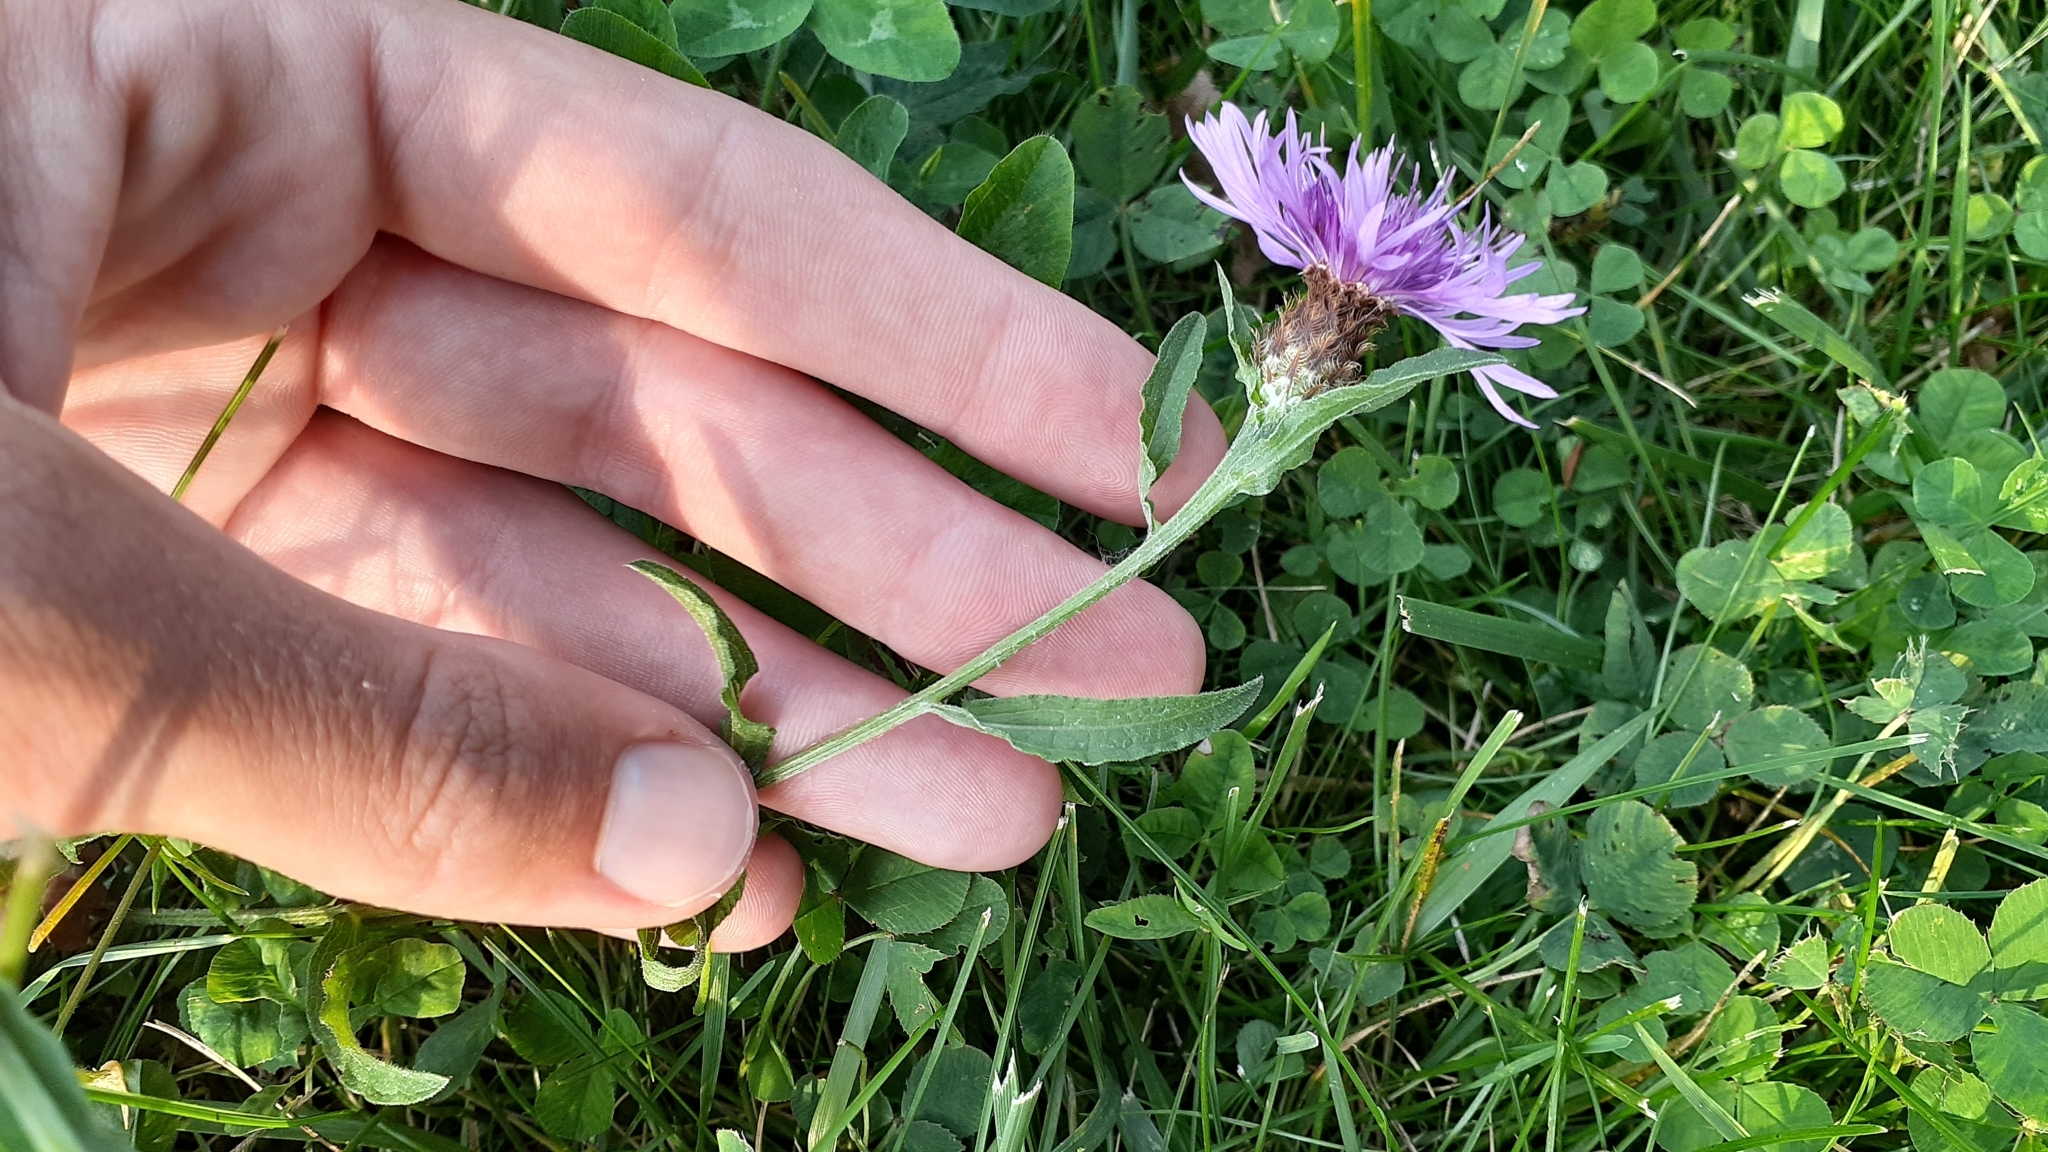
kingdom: Plantae
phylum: Tracheophyta
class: Magnoliopsida
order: Asterales
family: Asteraceae
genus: Centaurea
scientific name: Centaurea moncktonii
